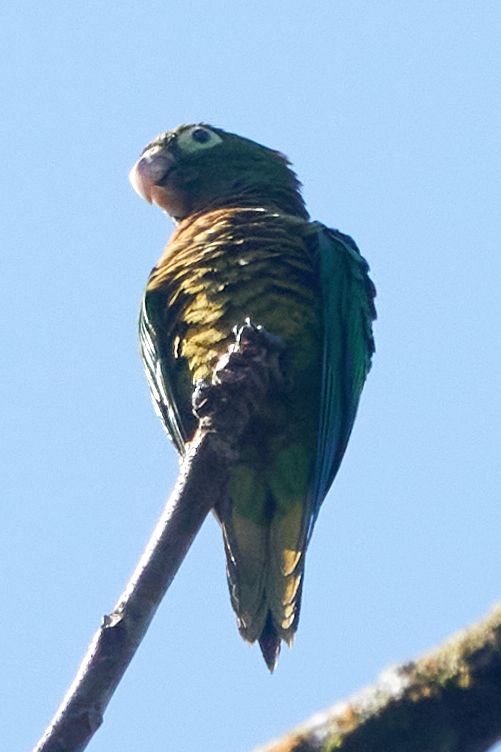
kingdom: Animalia
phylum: Chordata
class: Aves
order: Psittaciformes
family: Psittacidae
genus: Aratinga
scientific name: Aratinga nana
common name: Olive-throated parakeet
